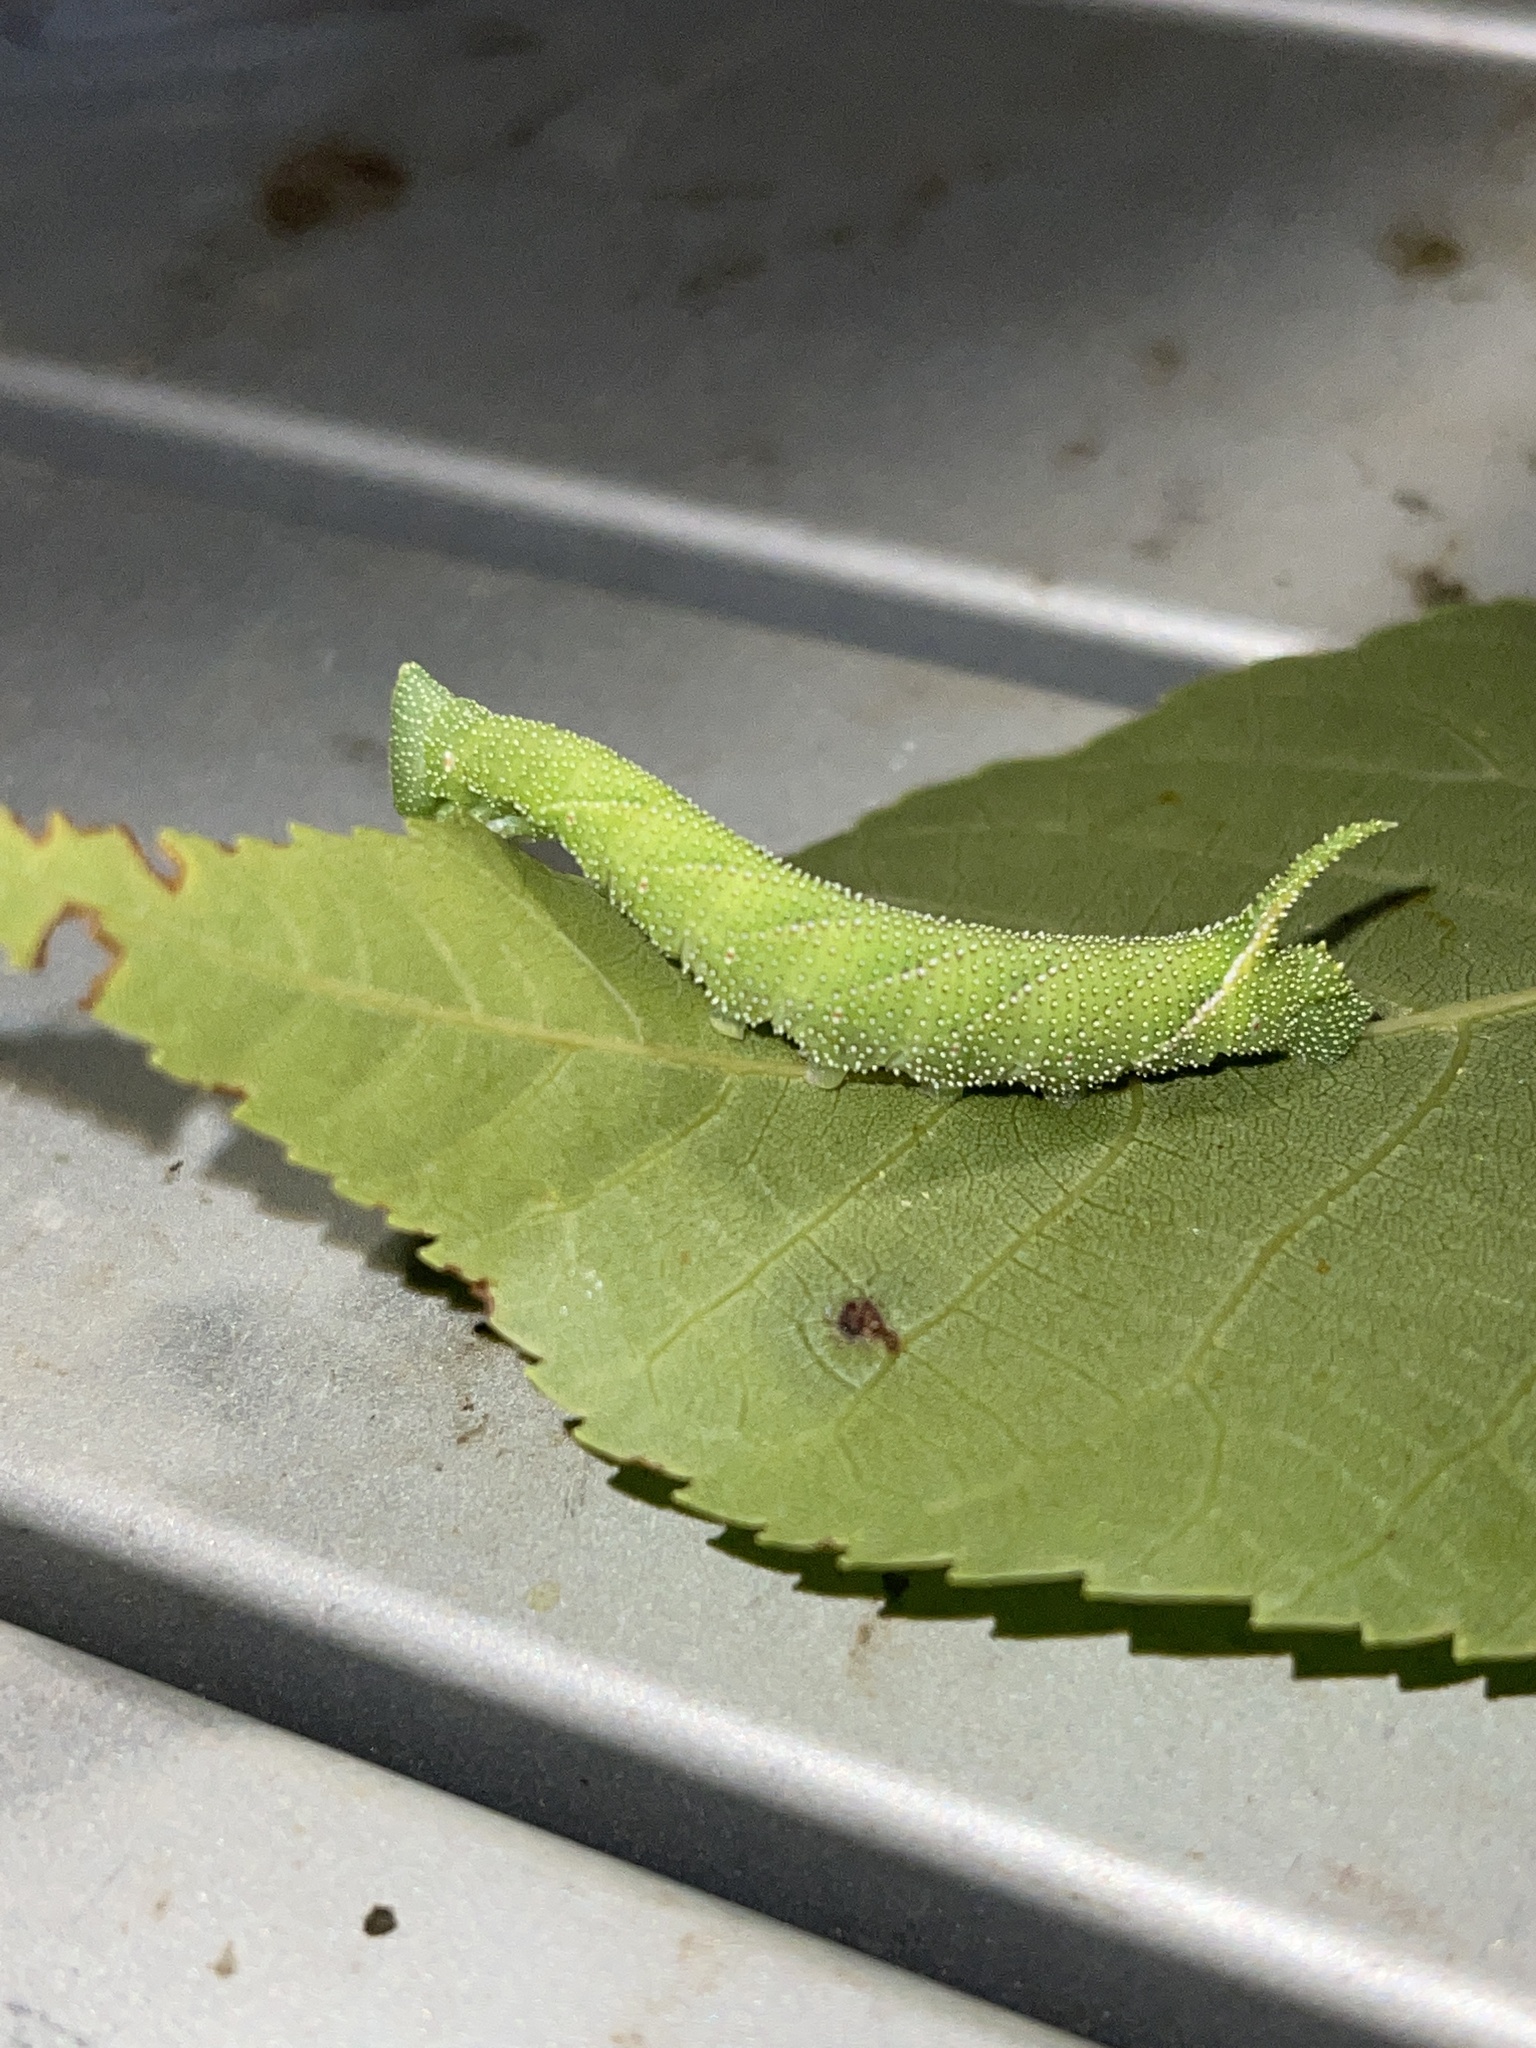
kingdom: Animalia
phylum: Arthropoda
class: Insecta
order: Lepidoptera
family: Sphingidae
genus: Amorpha
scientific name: Amorpha juglandis
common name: Walnut sphinx
